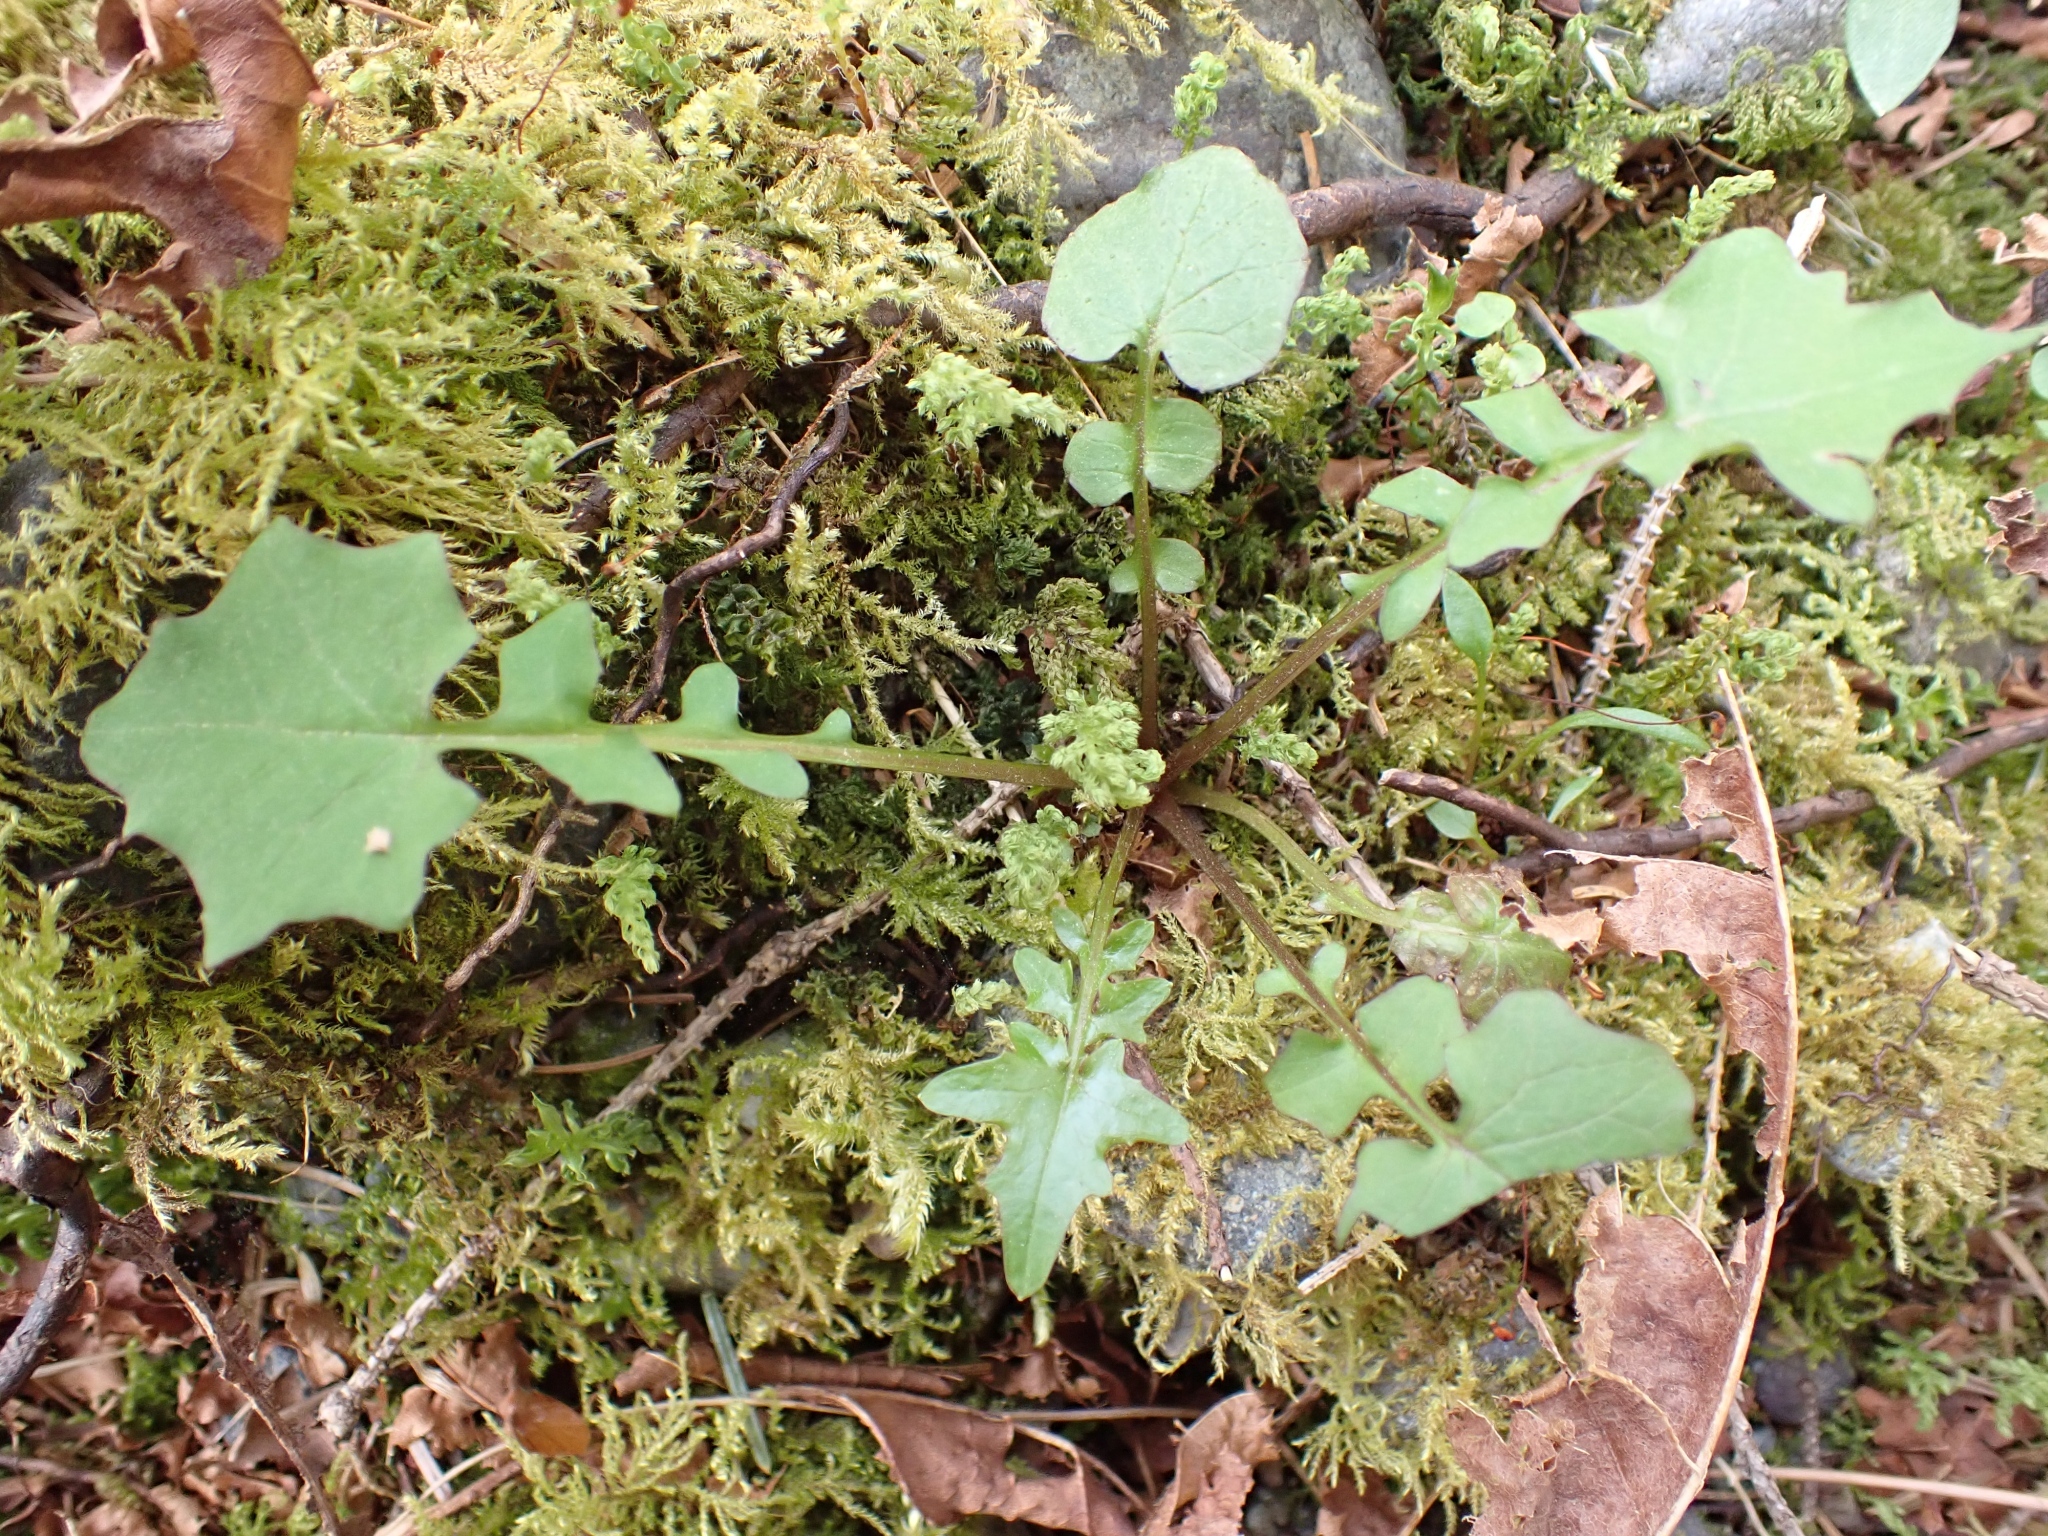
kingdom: Plantae
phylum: Tracheophyta
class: Magnoliopsida
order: Asterales
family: Asteraceae
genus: Mycelis
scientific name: Mycelis muralis
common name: Wall lettuce
